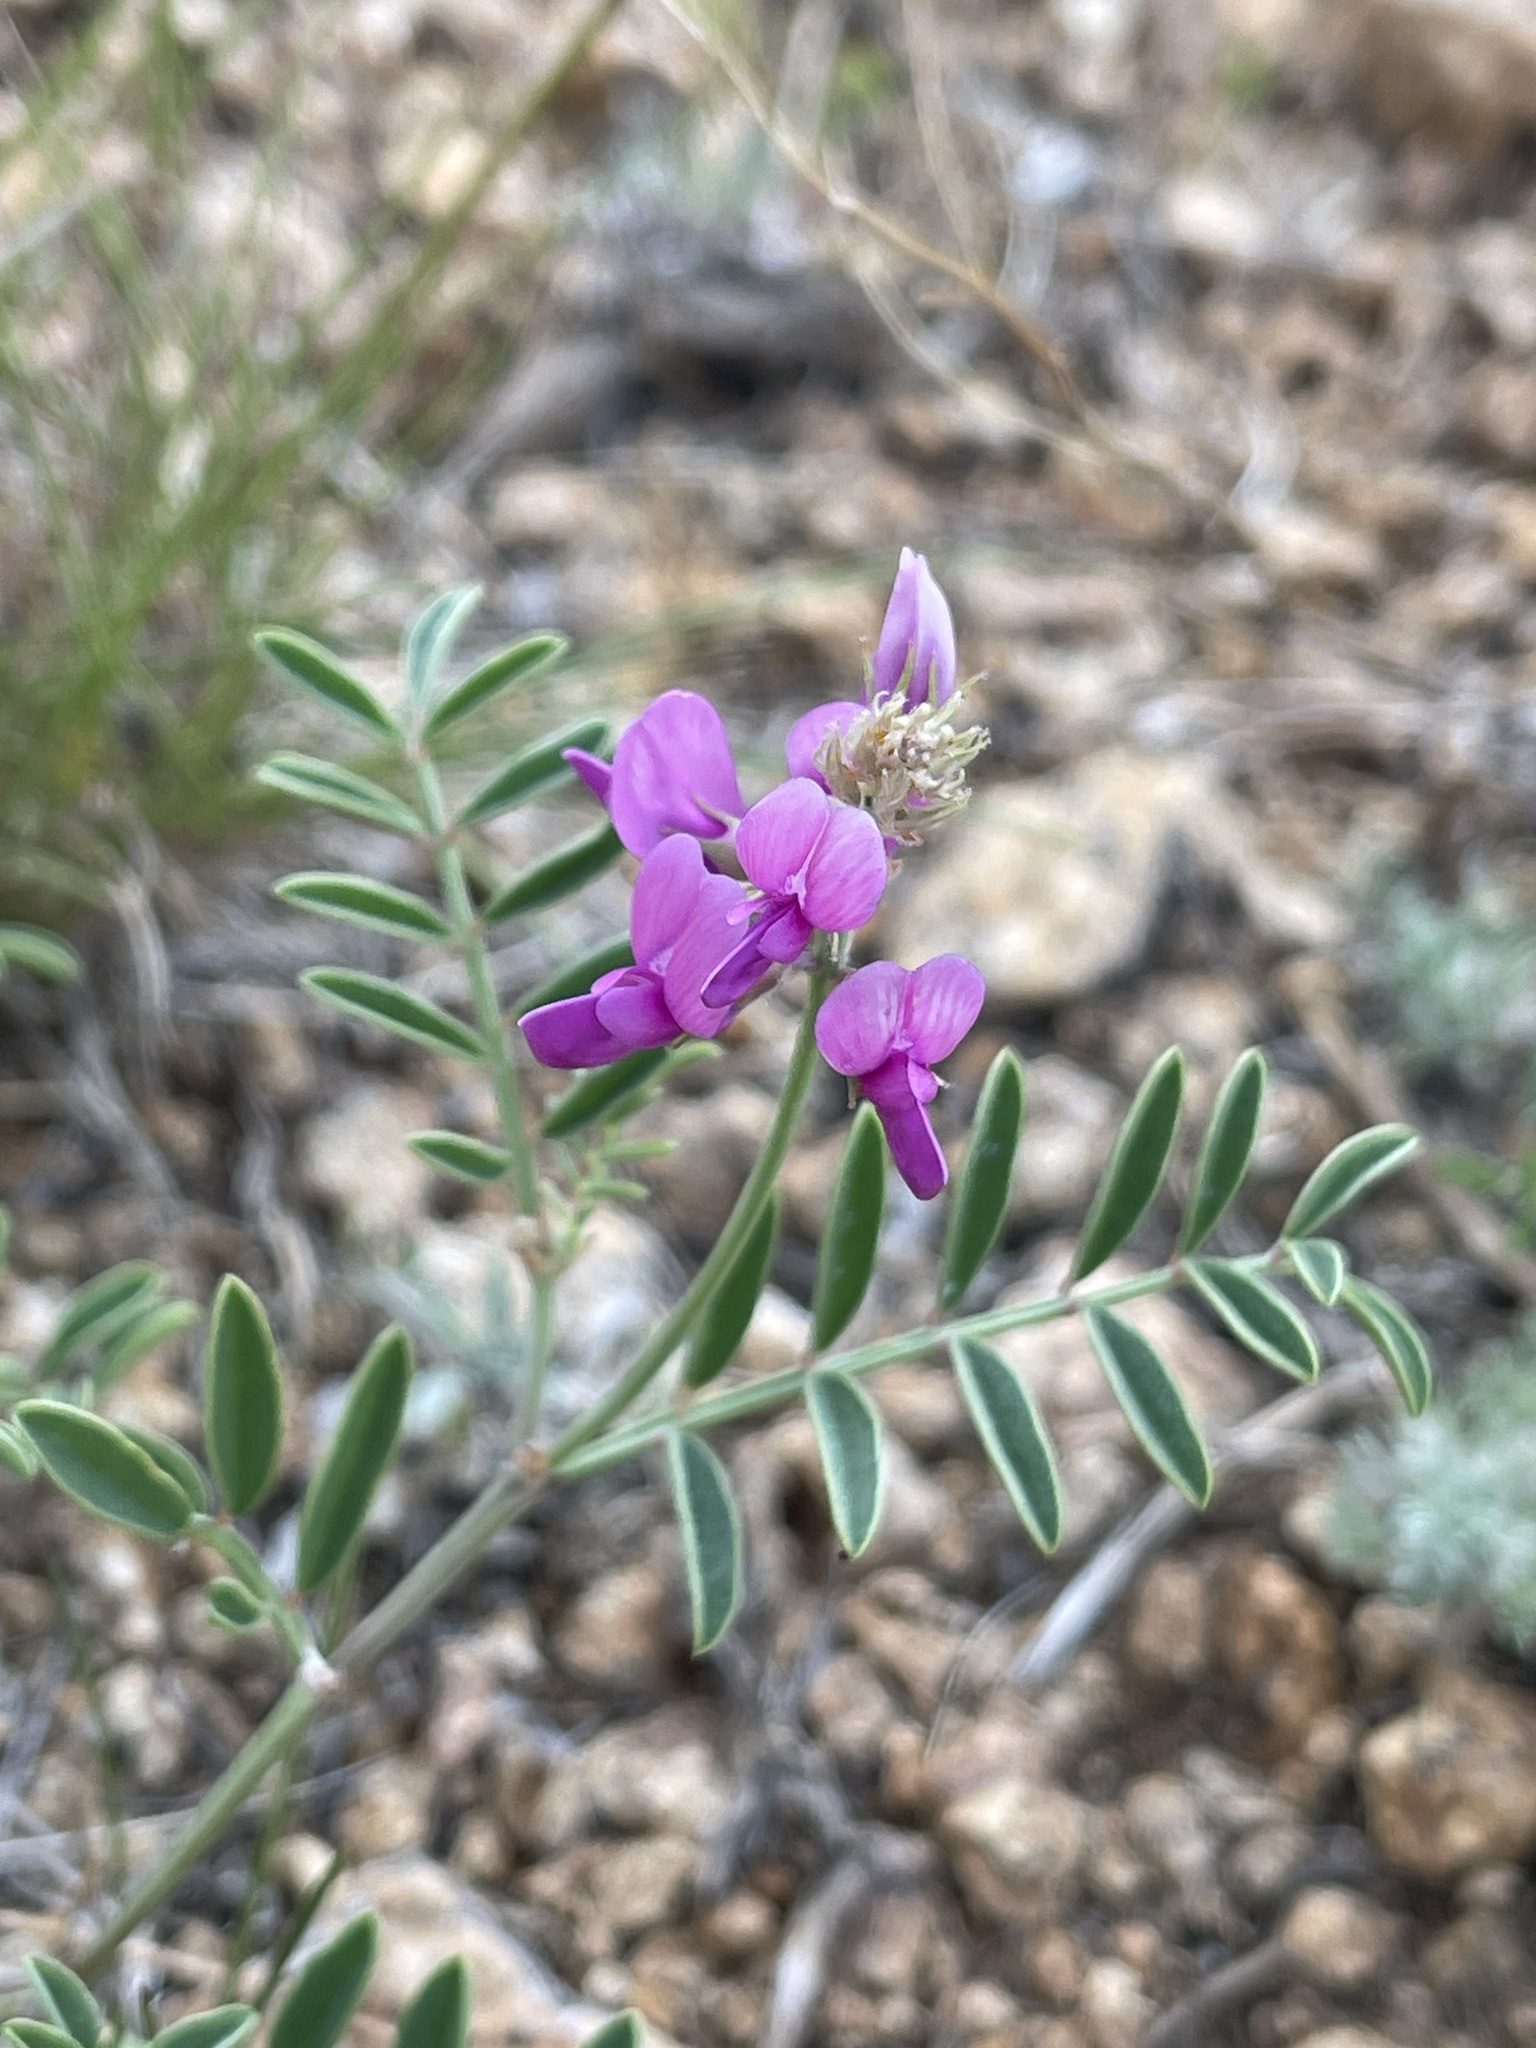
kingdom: Plantae
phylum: Tracheophyta
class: Magnoliopsida
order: Fabales
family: Fabaceae
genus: Hedysarum
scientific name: Hedysarum boreale
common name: Northern sweet-vetch
